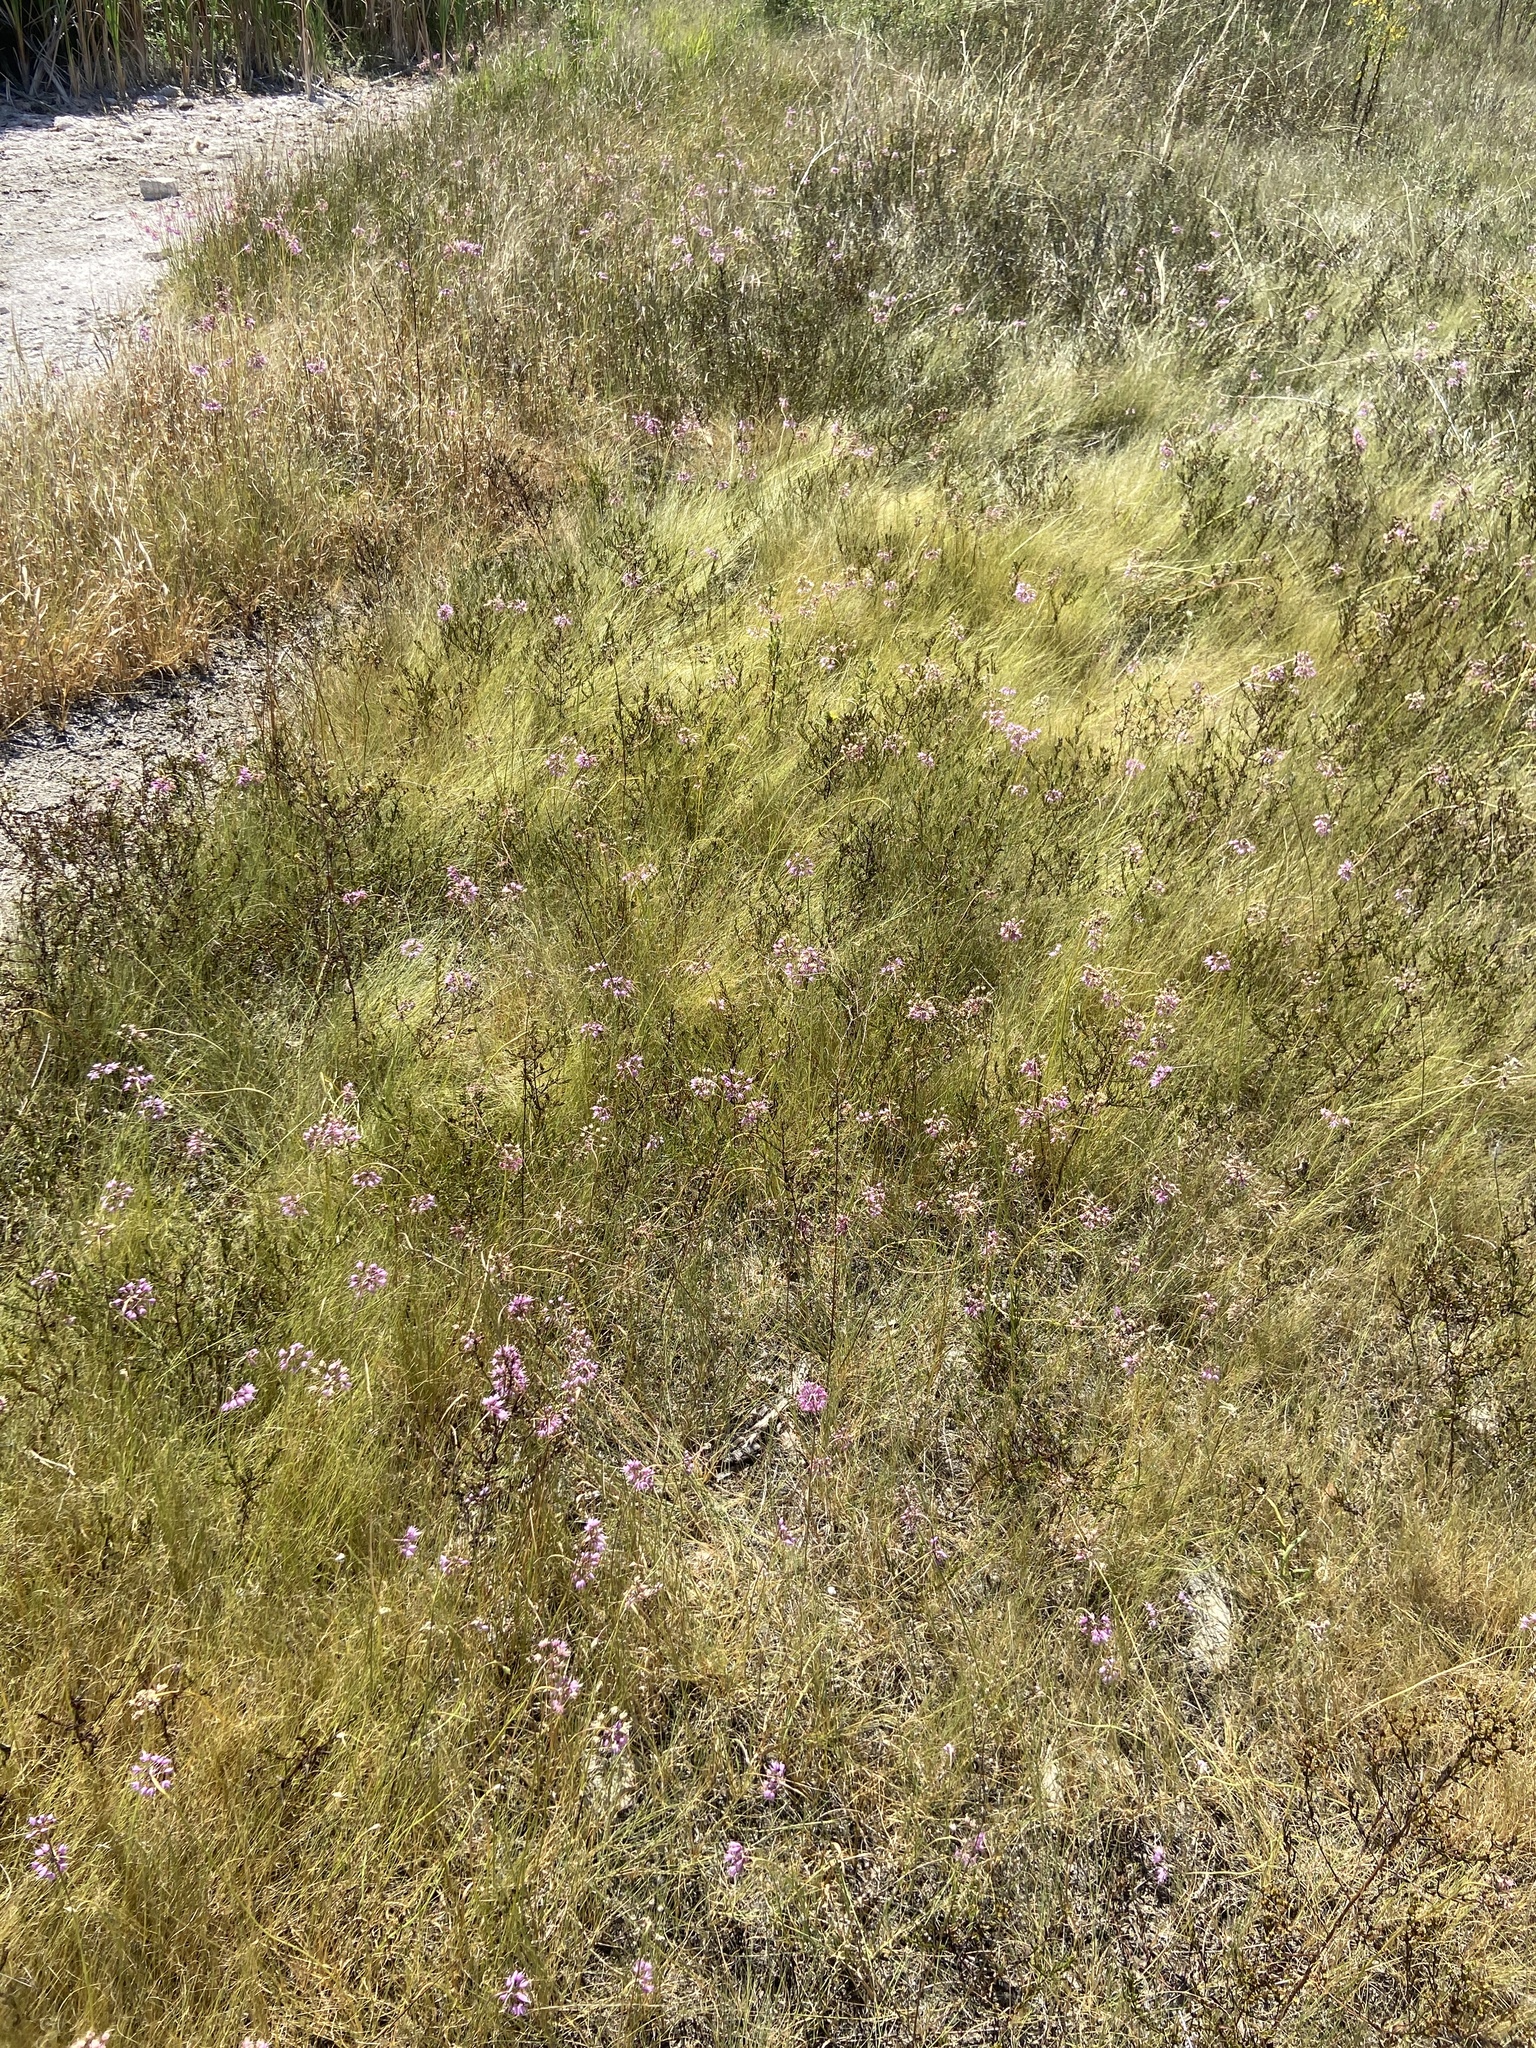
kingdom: Plantae
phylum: Tracheophyta
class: Liliopsida
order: Asparagales
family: Amaryllidaceae
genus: Allium
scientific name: Allium cernuum
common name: Nodding onion
